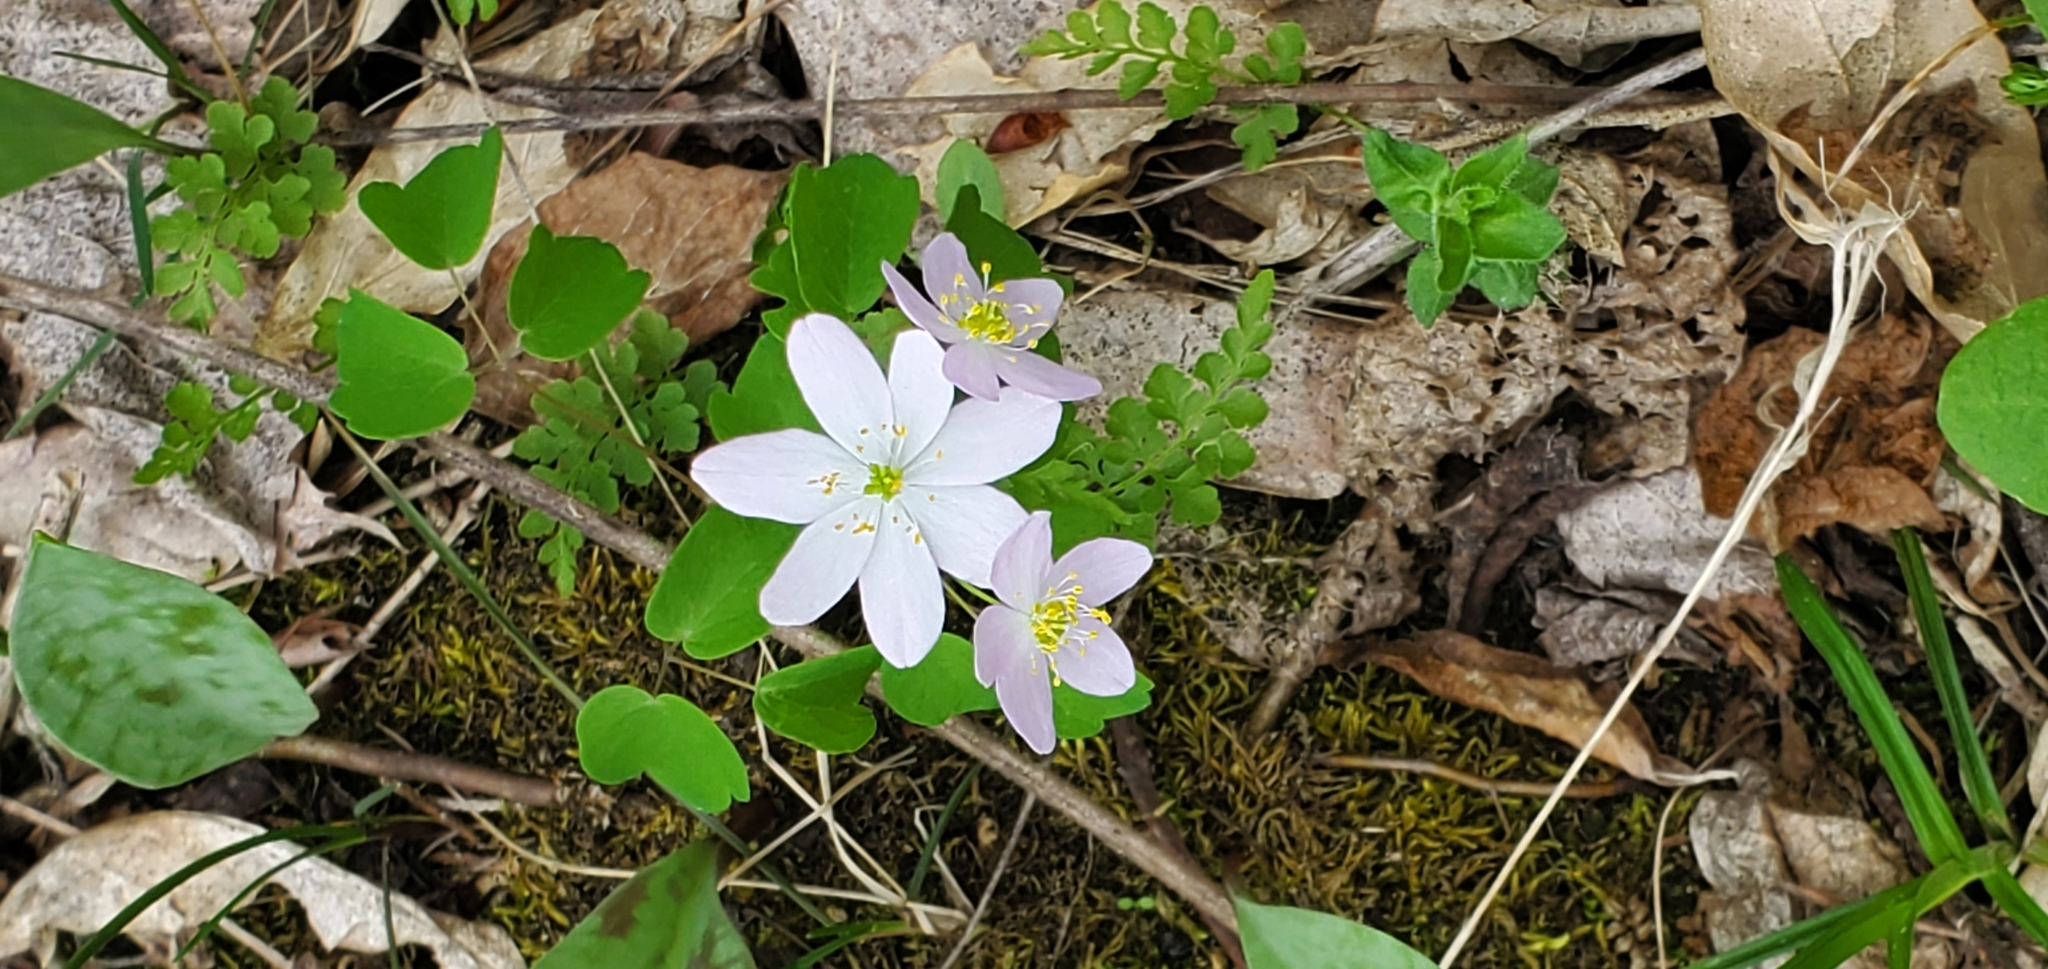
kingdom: Plantae
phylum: Tracheophyta
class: Magnoliopsida
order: Ranunculales
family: Ranunculaceae
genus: Thalictrum
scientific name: Thalictrum thalictroides
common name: Rue-anemone
